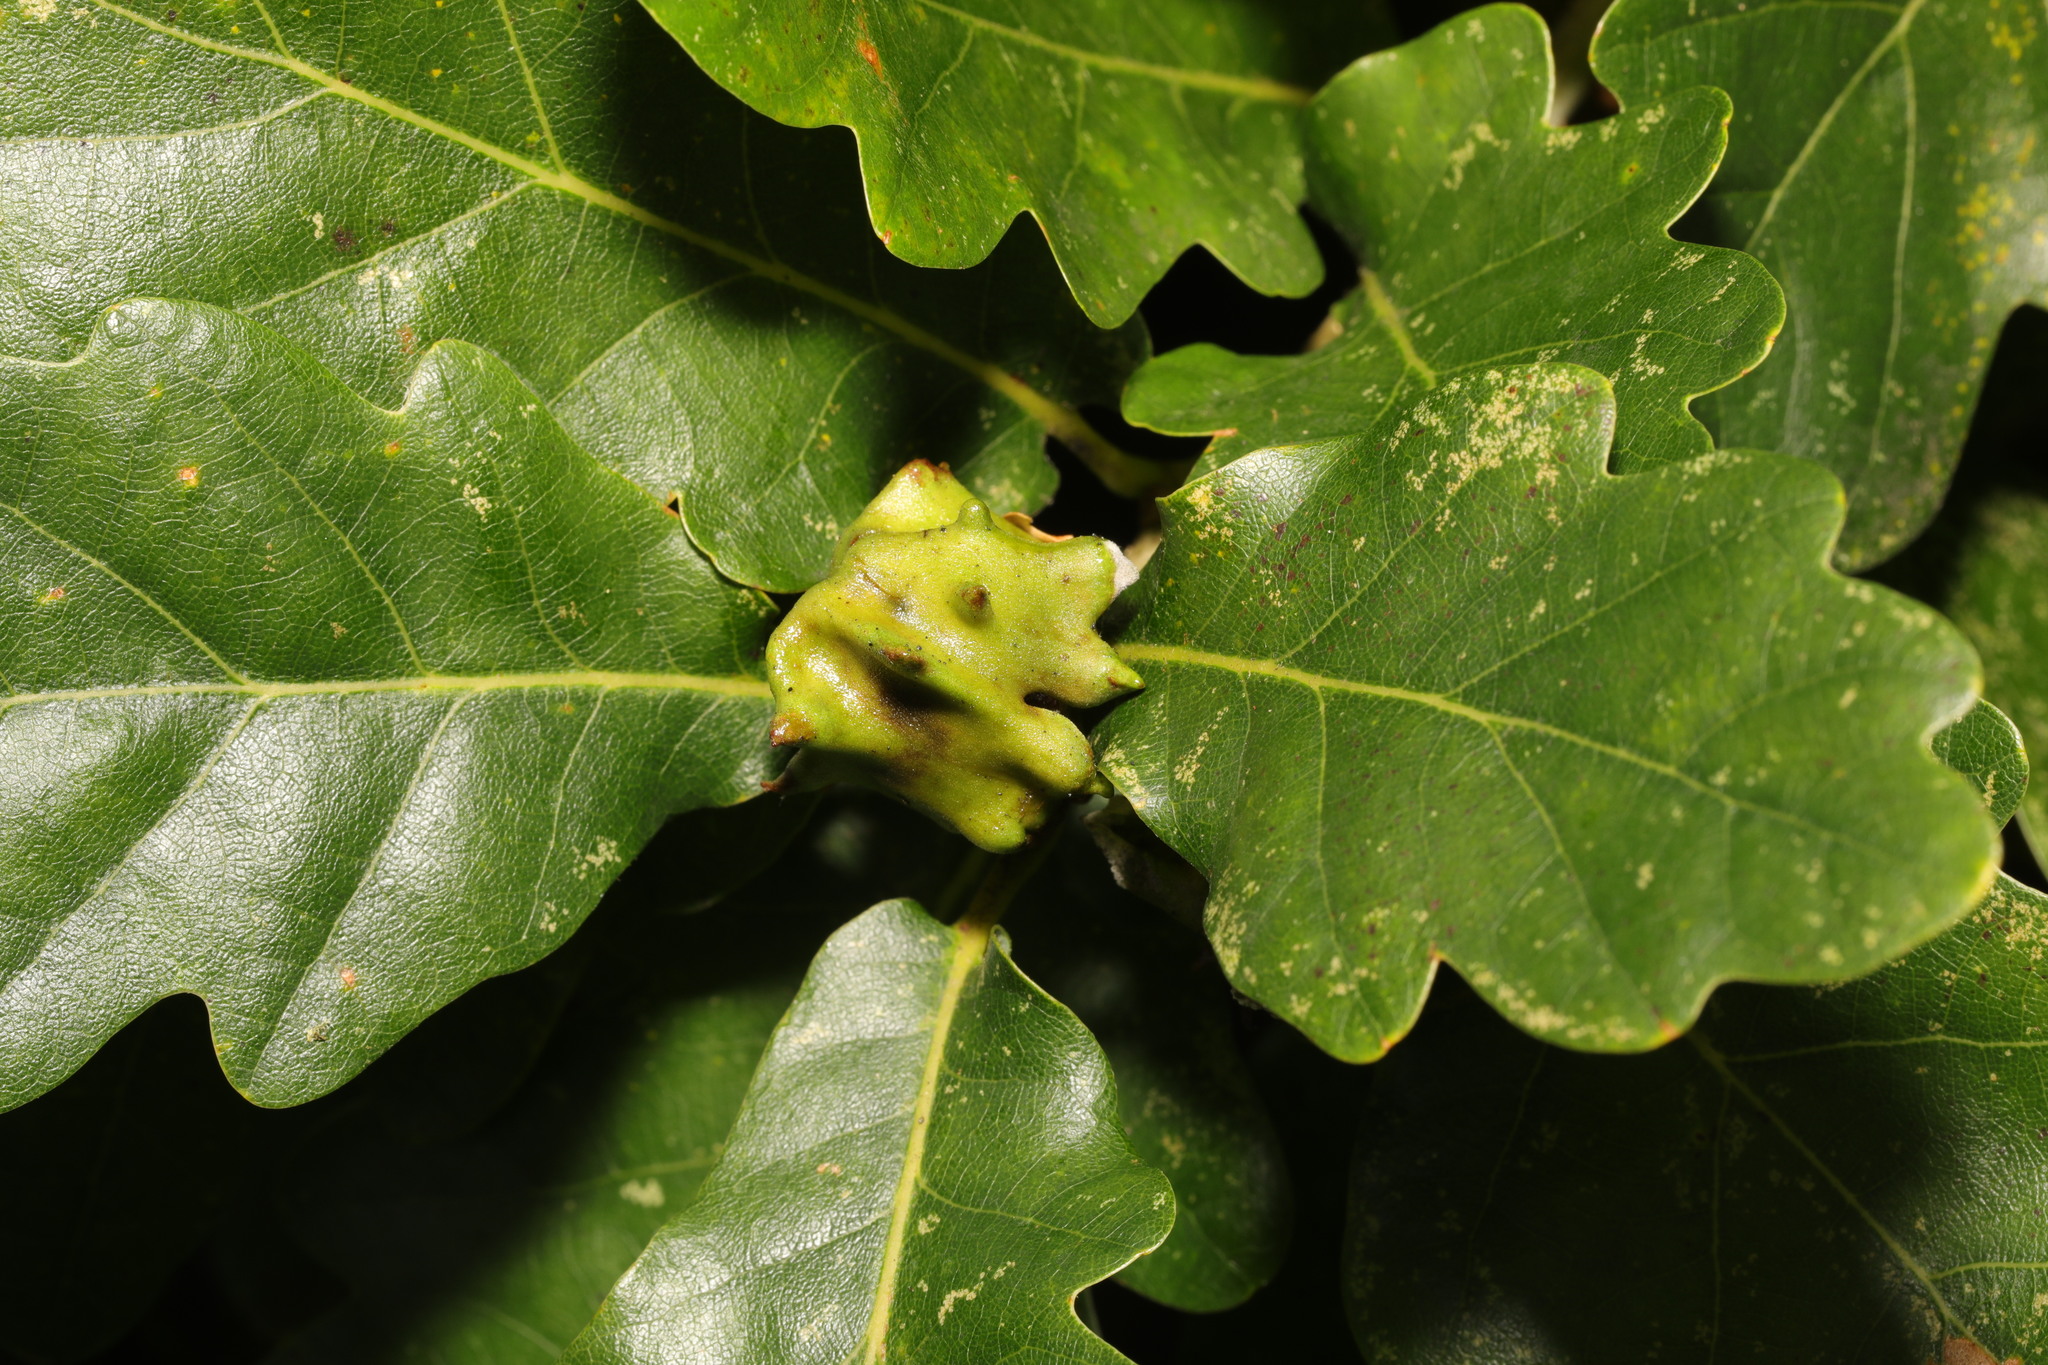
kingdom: Animalia
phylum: Arthropoda
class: Insecta
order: Hymenoptera
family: Cynipidae
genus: Andricus
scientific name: Andricus quercuscalicis
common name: Knopper gall
